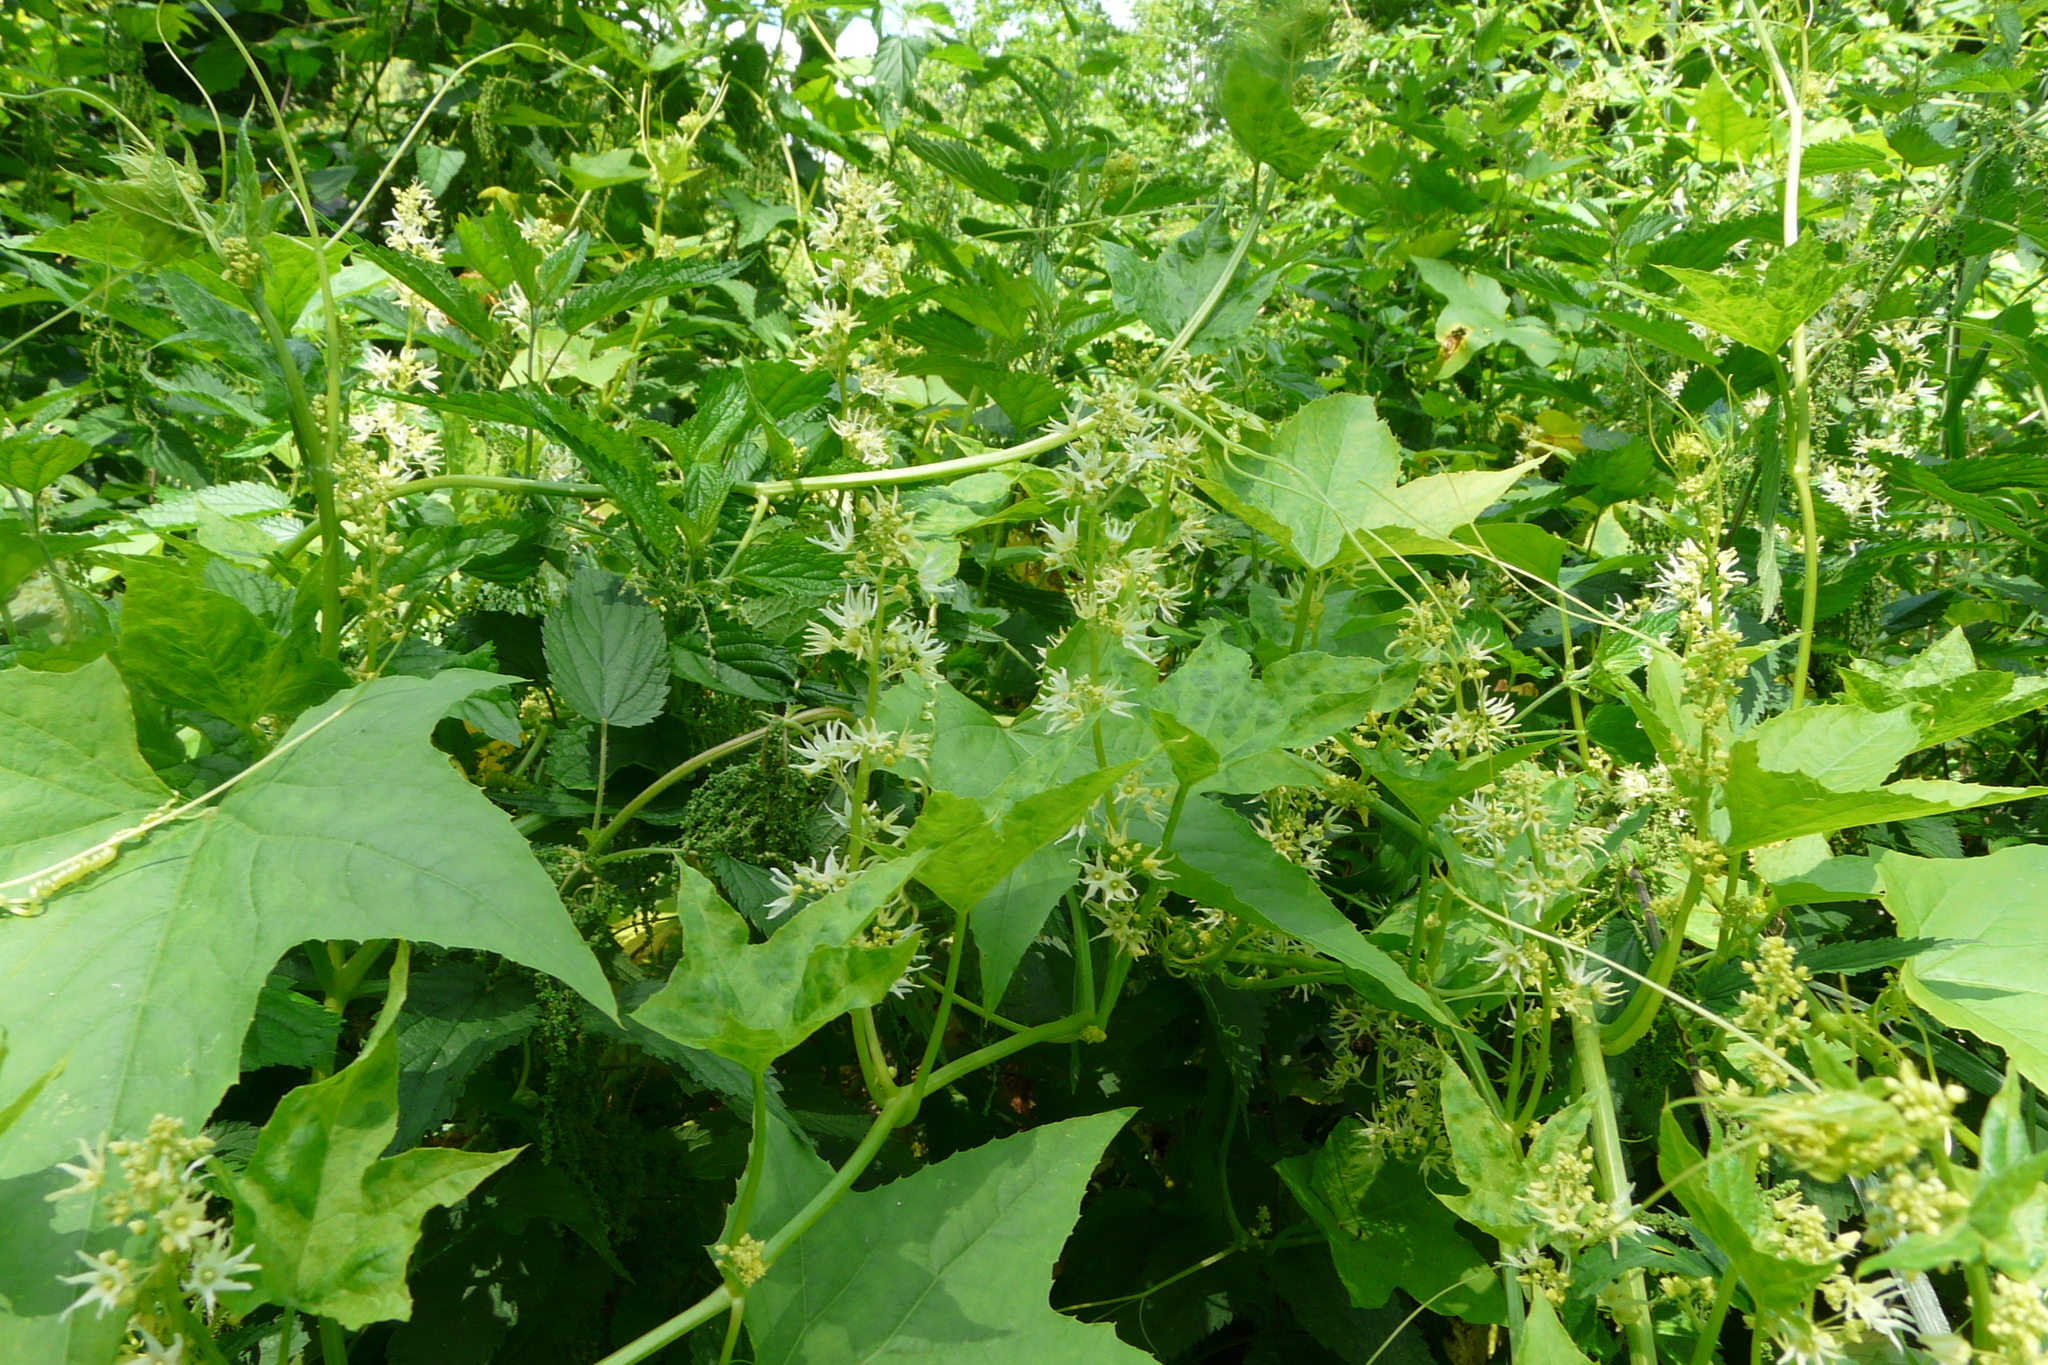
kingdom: Plantae
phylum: Tracheophyta
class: Magnoliopsida
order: Cucurbitales
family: Cucurbitaceae
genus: Echinocystis
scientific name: Echinocystis lobata
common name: Wild cucumber
